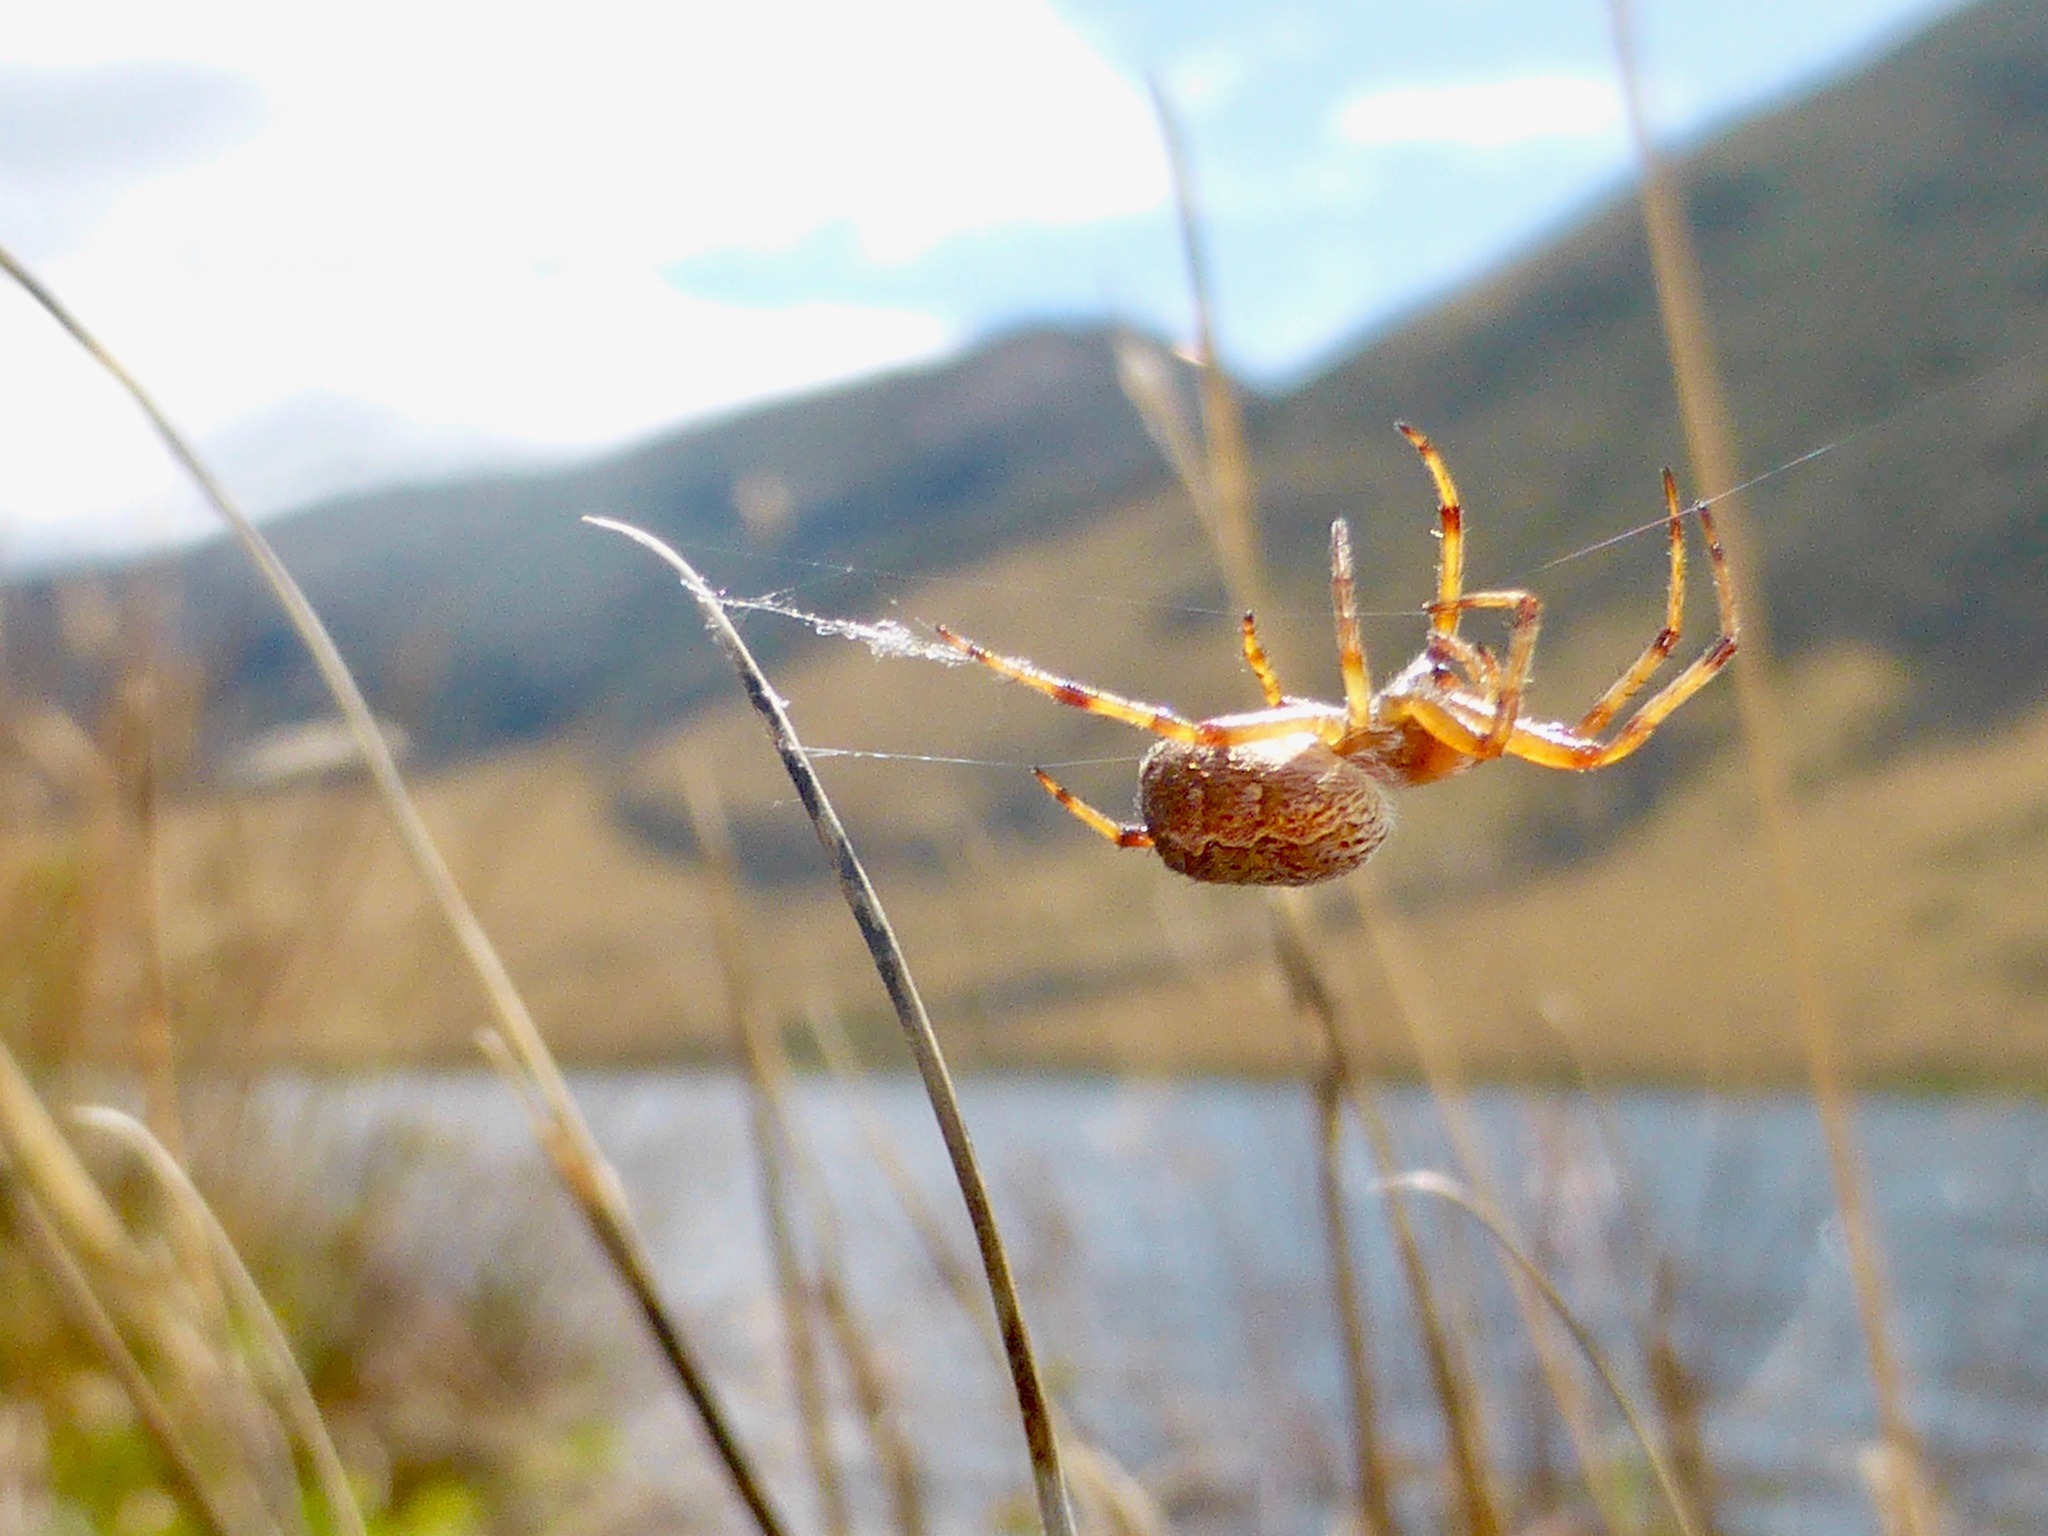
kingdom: Animalia
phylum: Arthropoda
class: Arachnida
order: Araneae
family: Araneidae
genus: Salsa
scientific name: Salsa fuliginata
